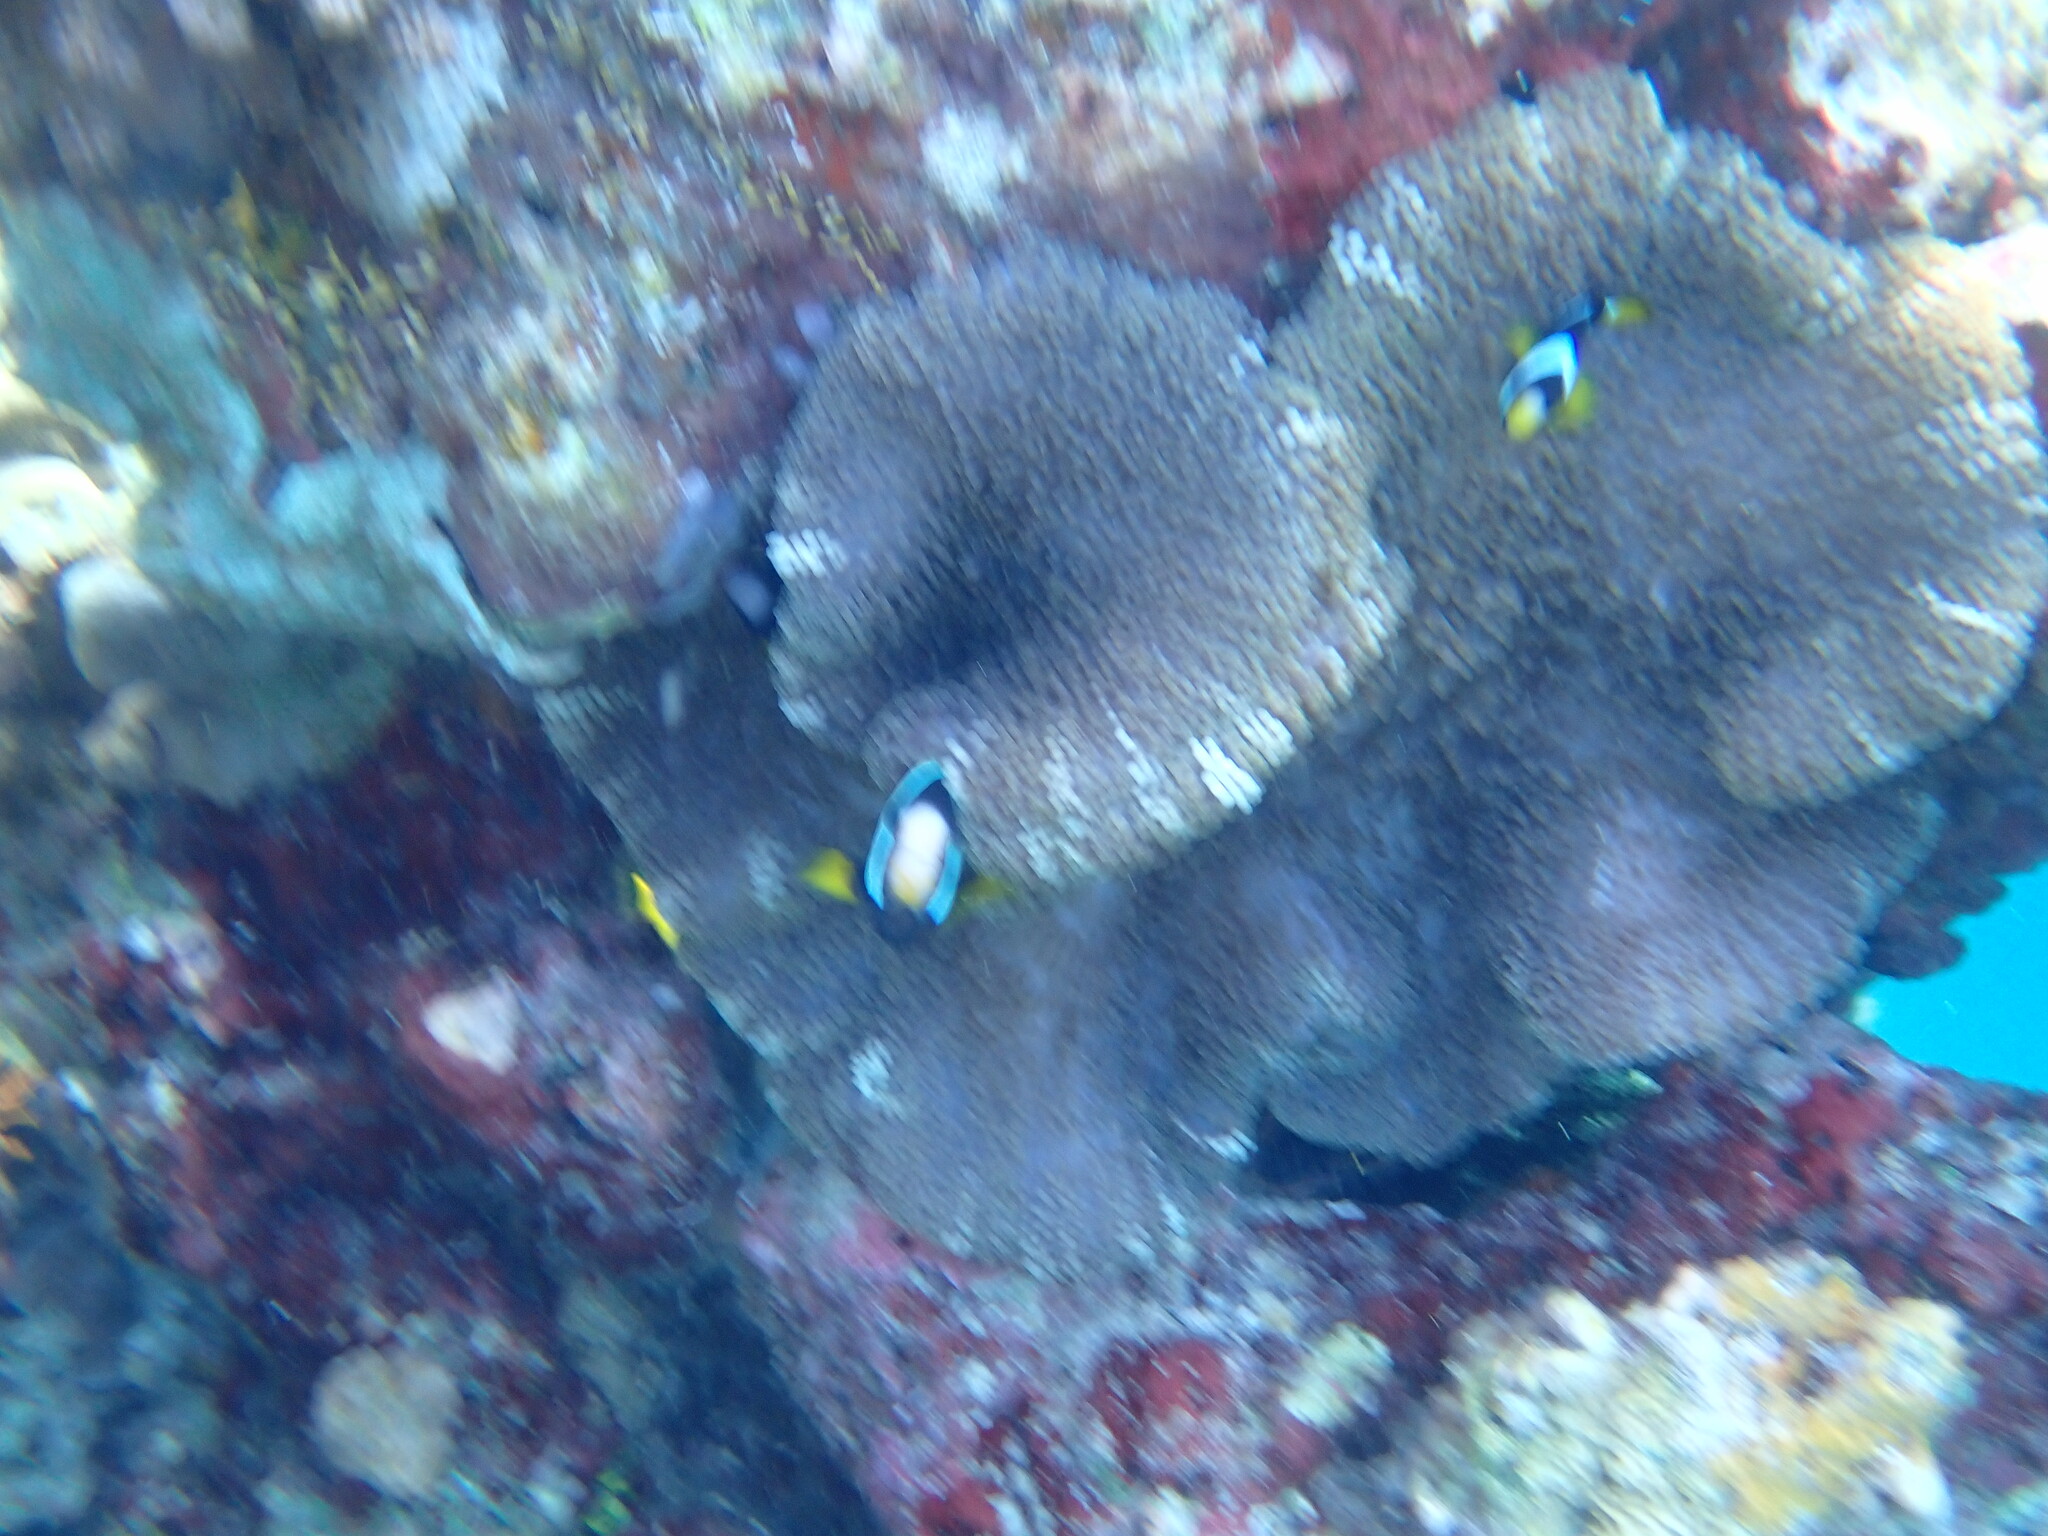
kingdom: Animalia
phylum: Chordata
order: Perciformes
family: Pomacentridae
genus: Amphiprion
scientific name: Amphiprion clarkii
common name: Clark's anemonefish
